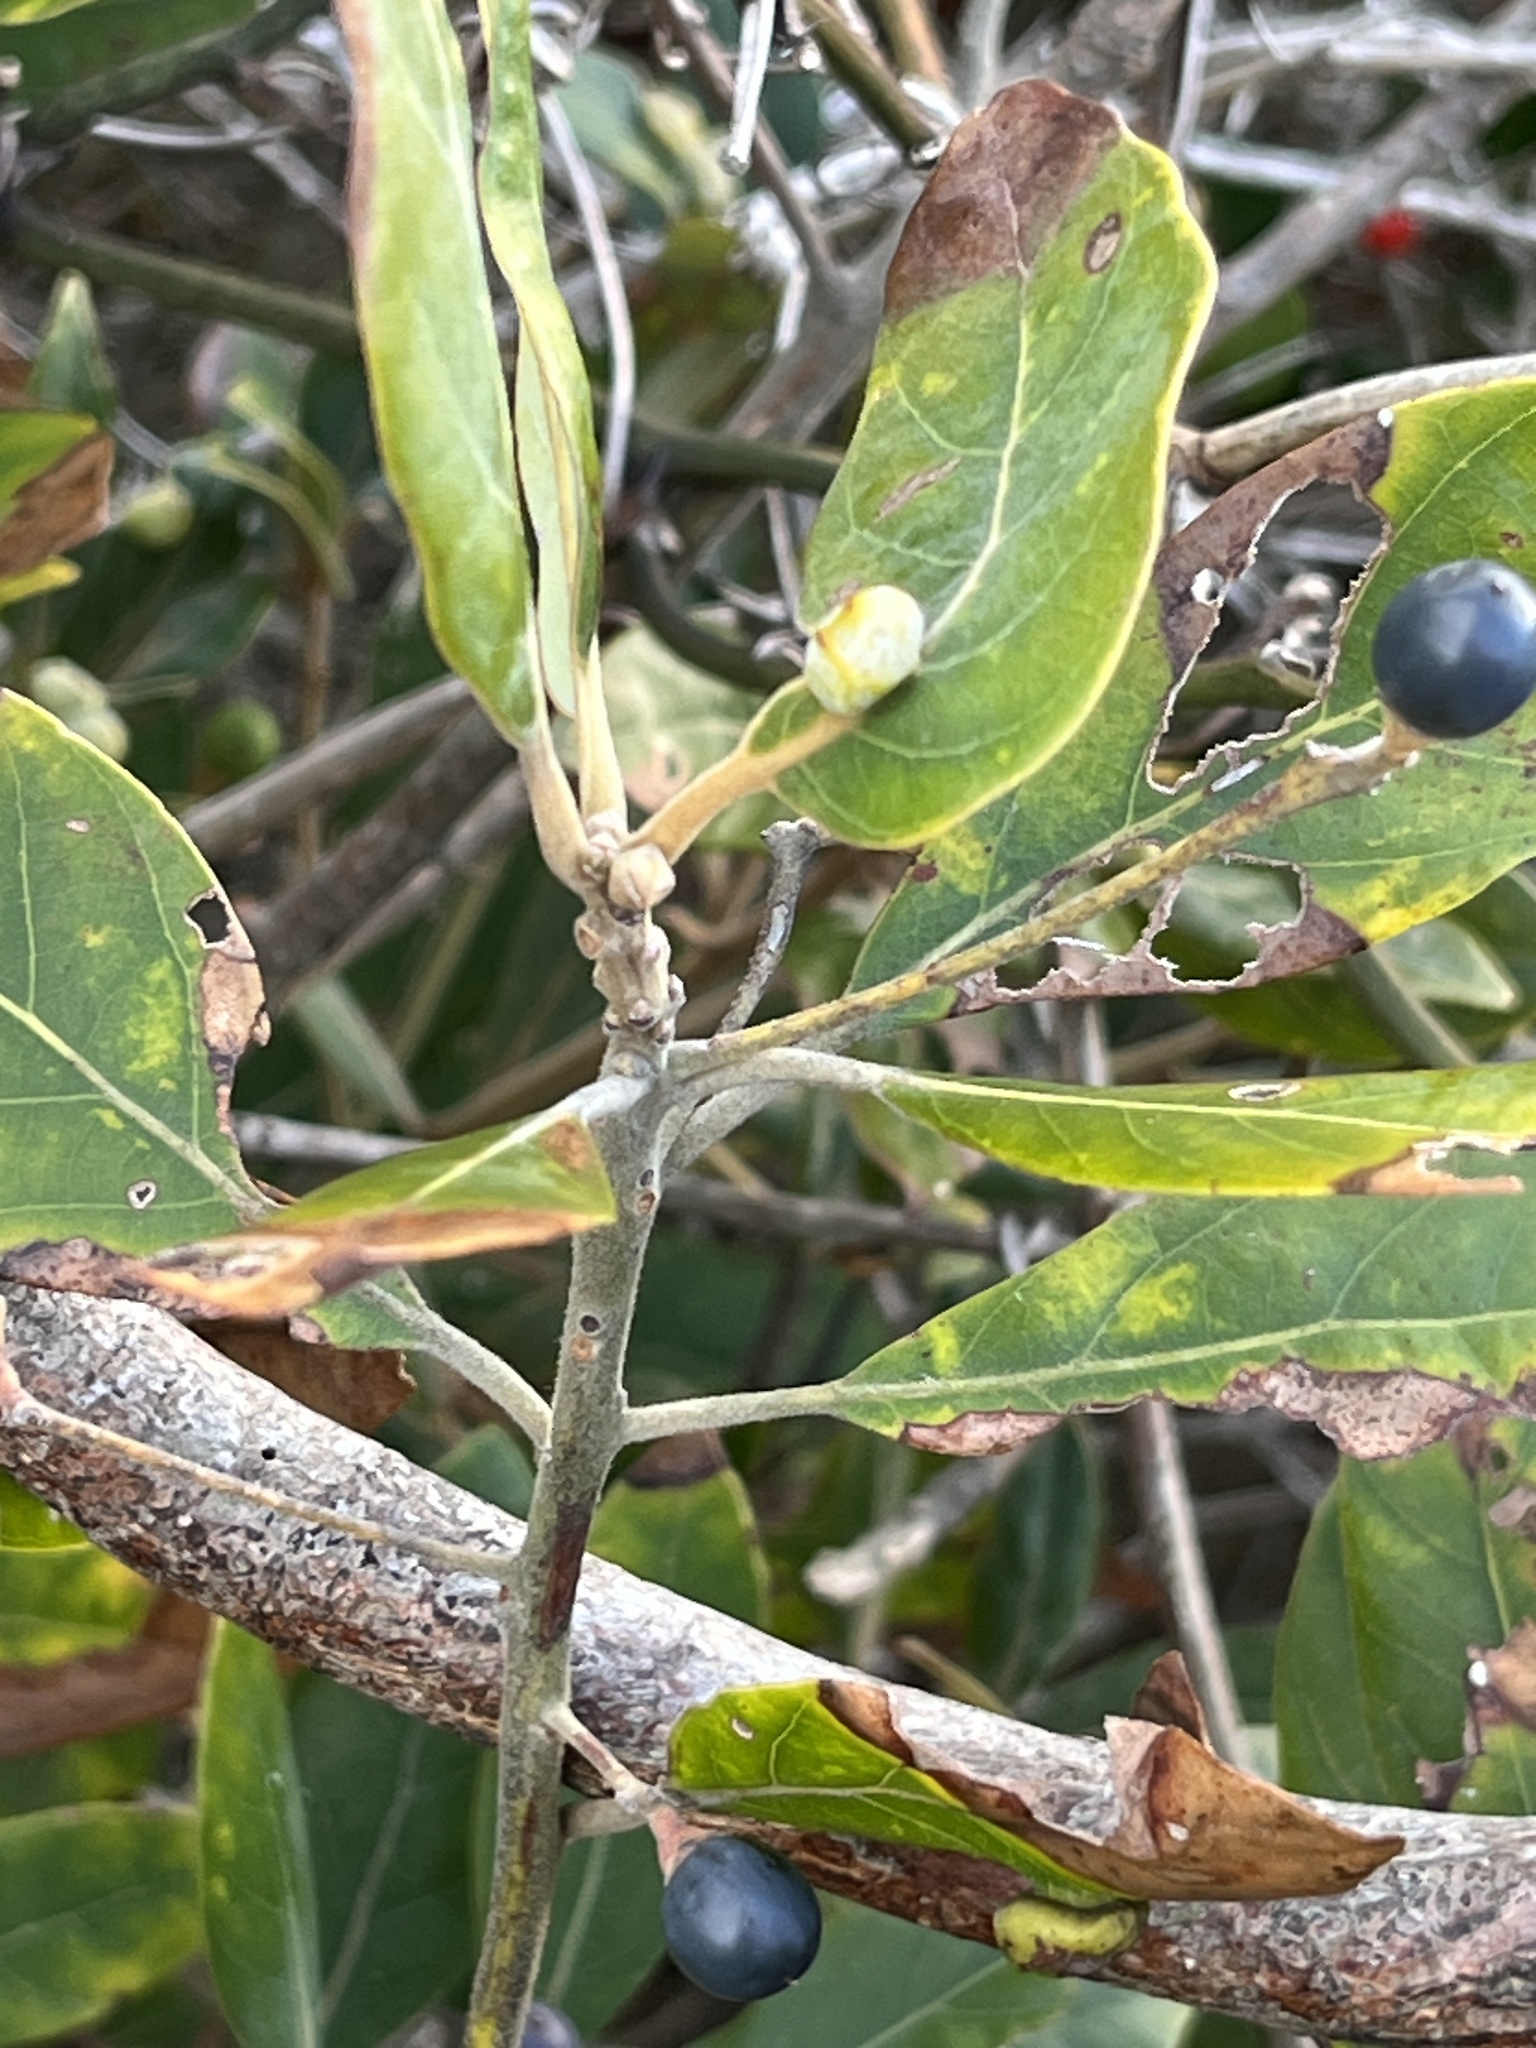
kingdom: Plantae
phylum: Tracheophyta
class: Magnoliopsida
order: Laurales
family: Lauraceae
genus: Persea
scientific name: Persea palustris
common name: Swampbay
